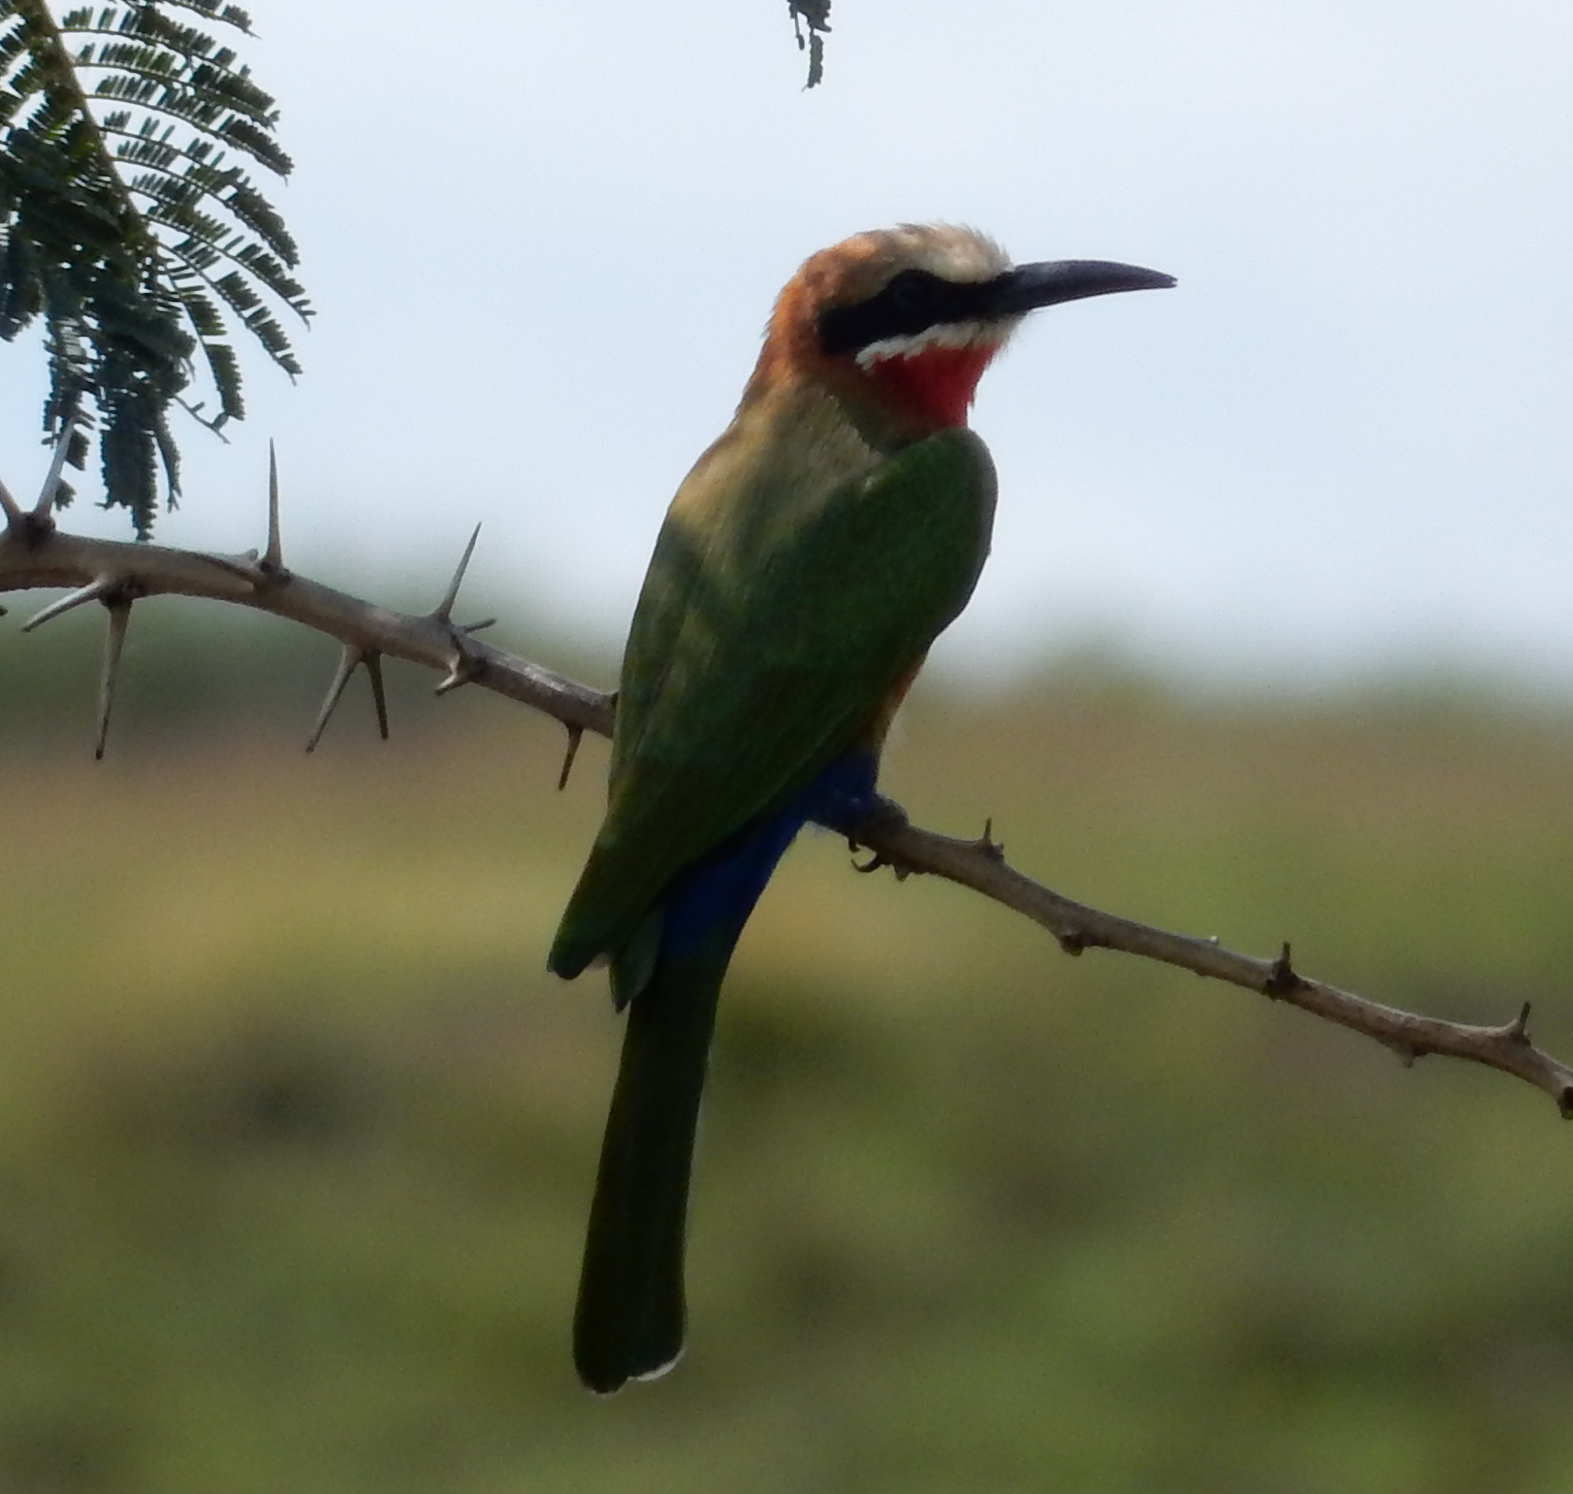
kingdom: Animalia
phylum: Chordata
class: Aves
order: Coraciiformes
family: Meropidae
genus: Merops
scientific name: Merops bullockoides
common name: White-fronted bee-eater
